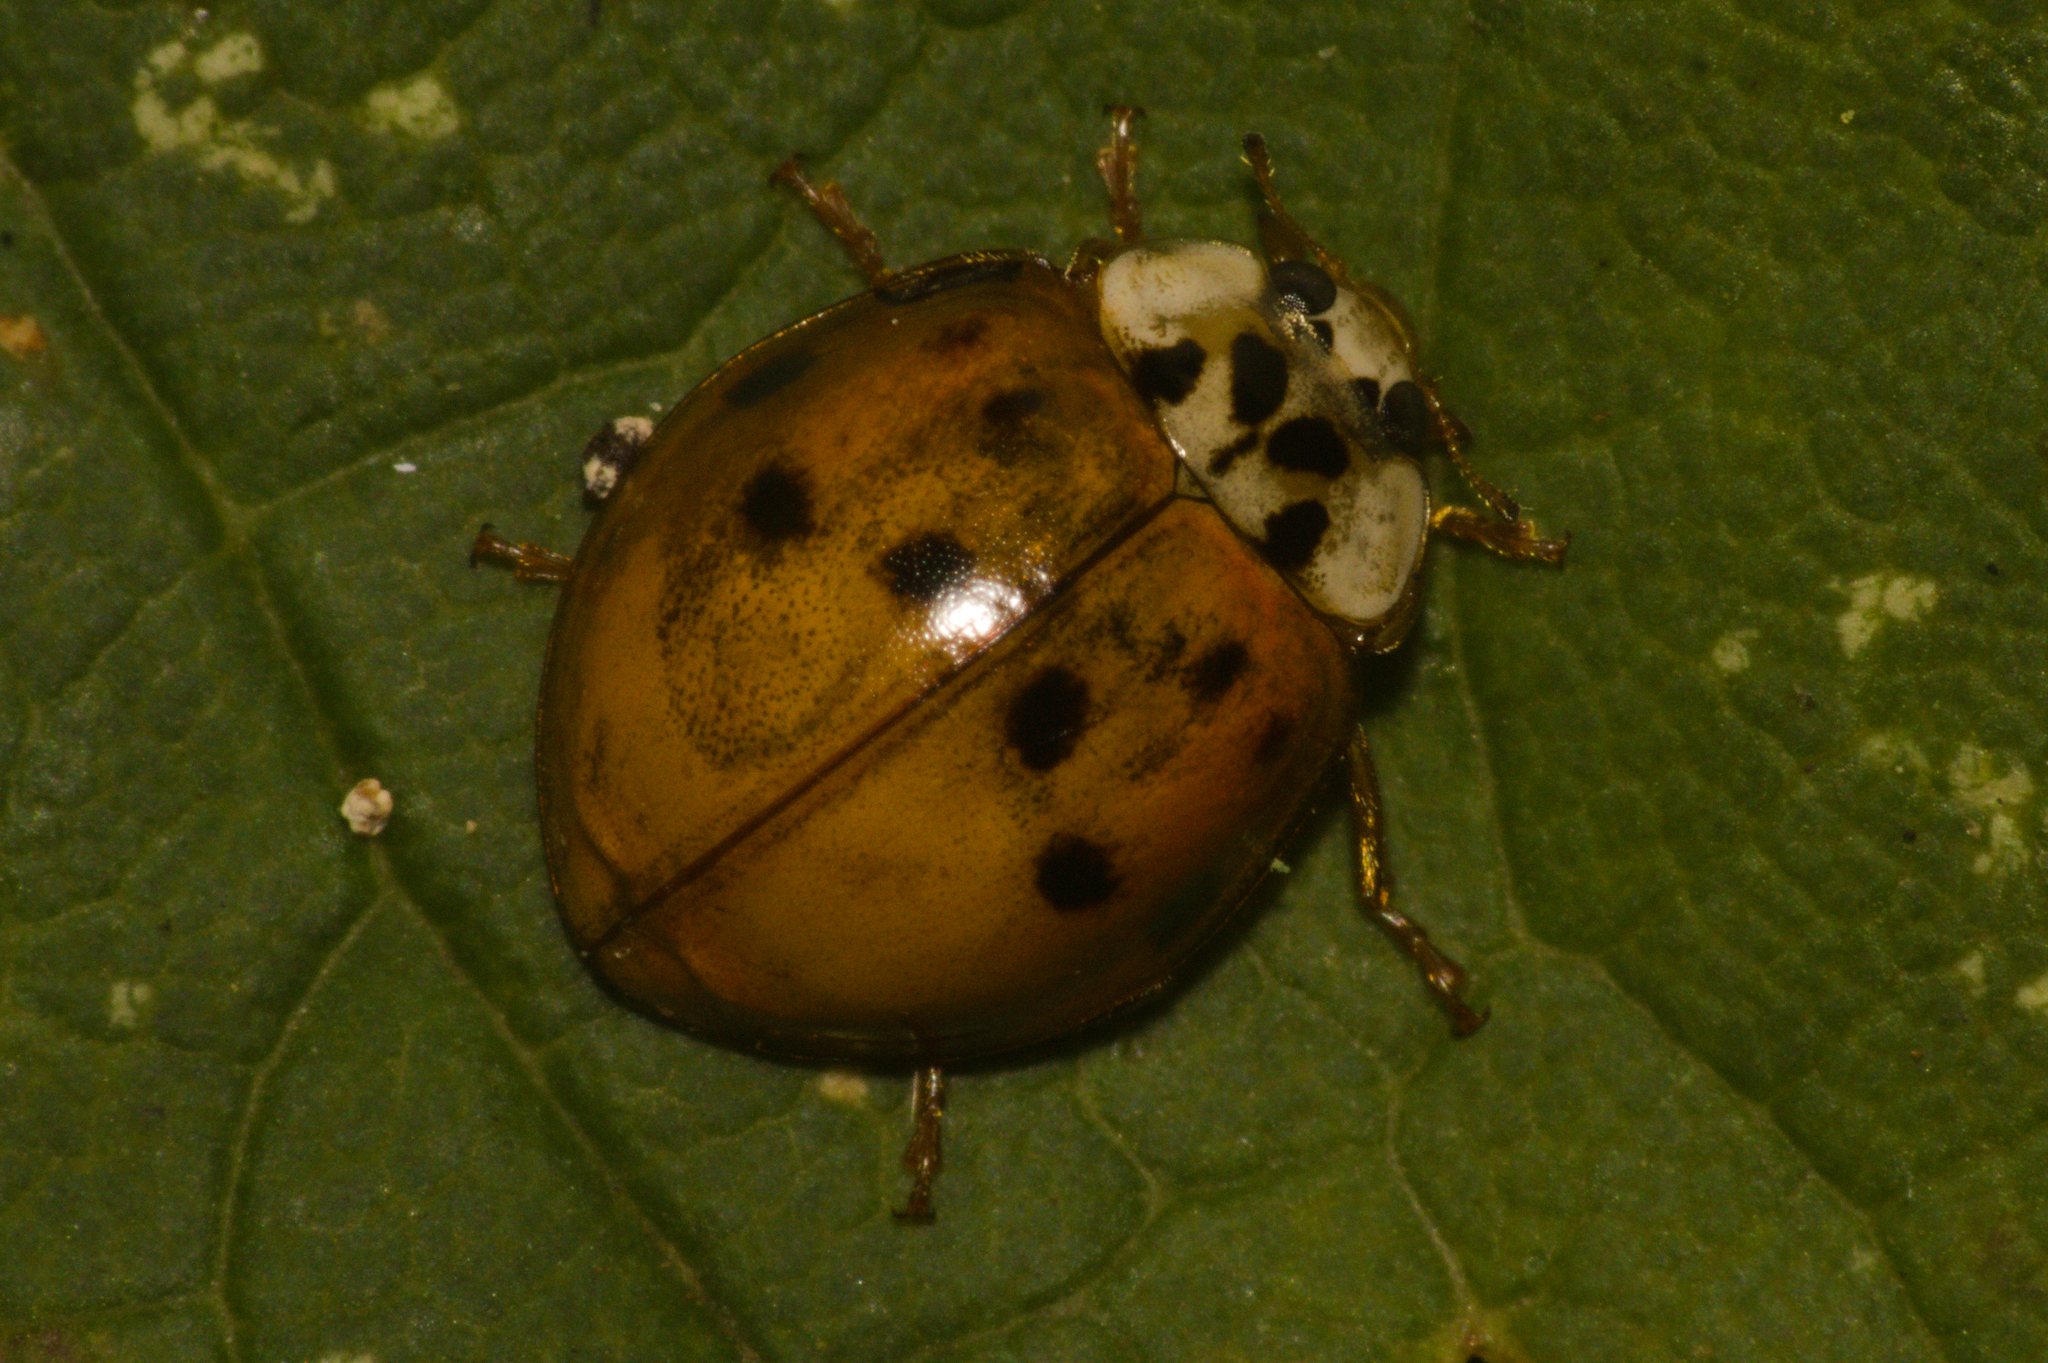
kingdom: Animalia
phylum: Arthropoda
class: Insecta
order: Coleoptera
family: Coccinellidae
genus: Harmonia
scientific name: Harmonia axyridis
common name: Harlequin ladybird
